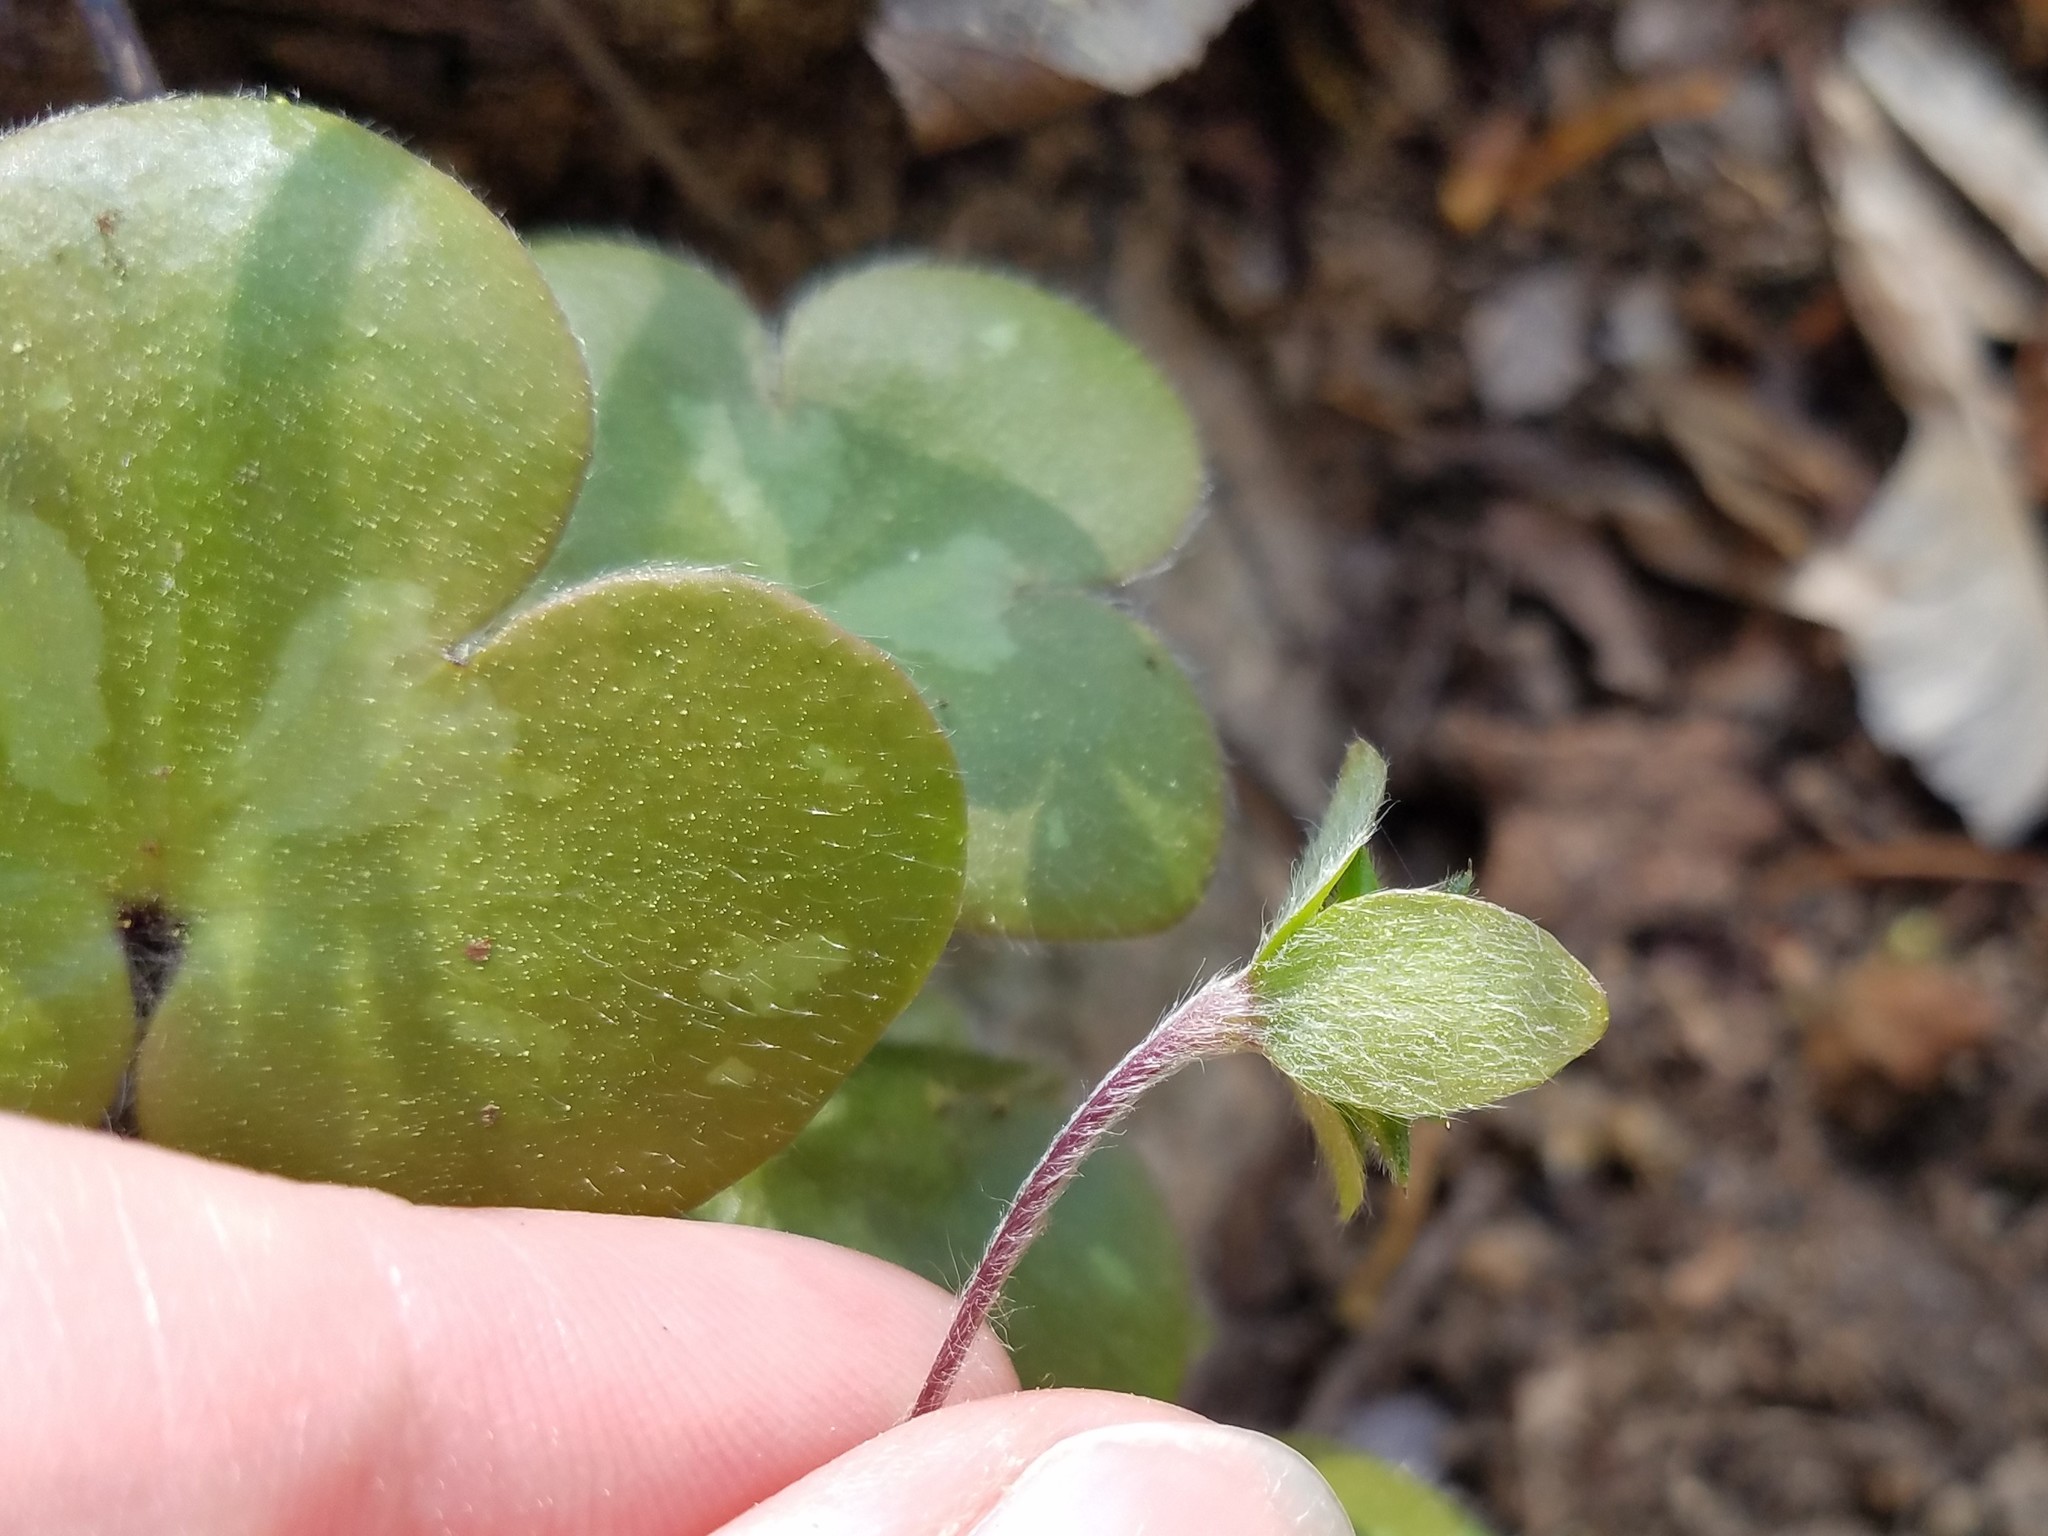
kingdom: Plantae
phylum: Tracheophyta
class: Magnoliopsida
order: Ranunculales
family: Ranunculaceae
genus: Hepatica
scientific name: Hepatica americana
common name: American hepatica
